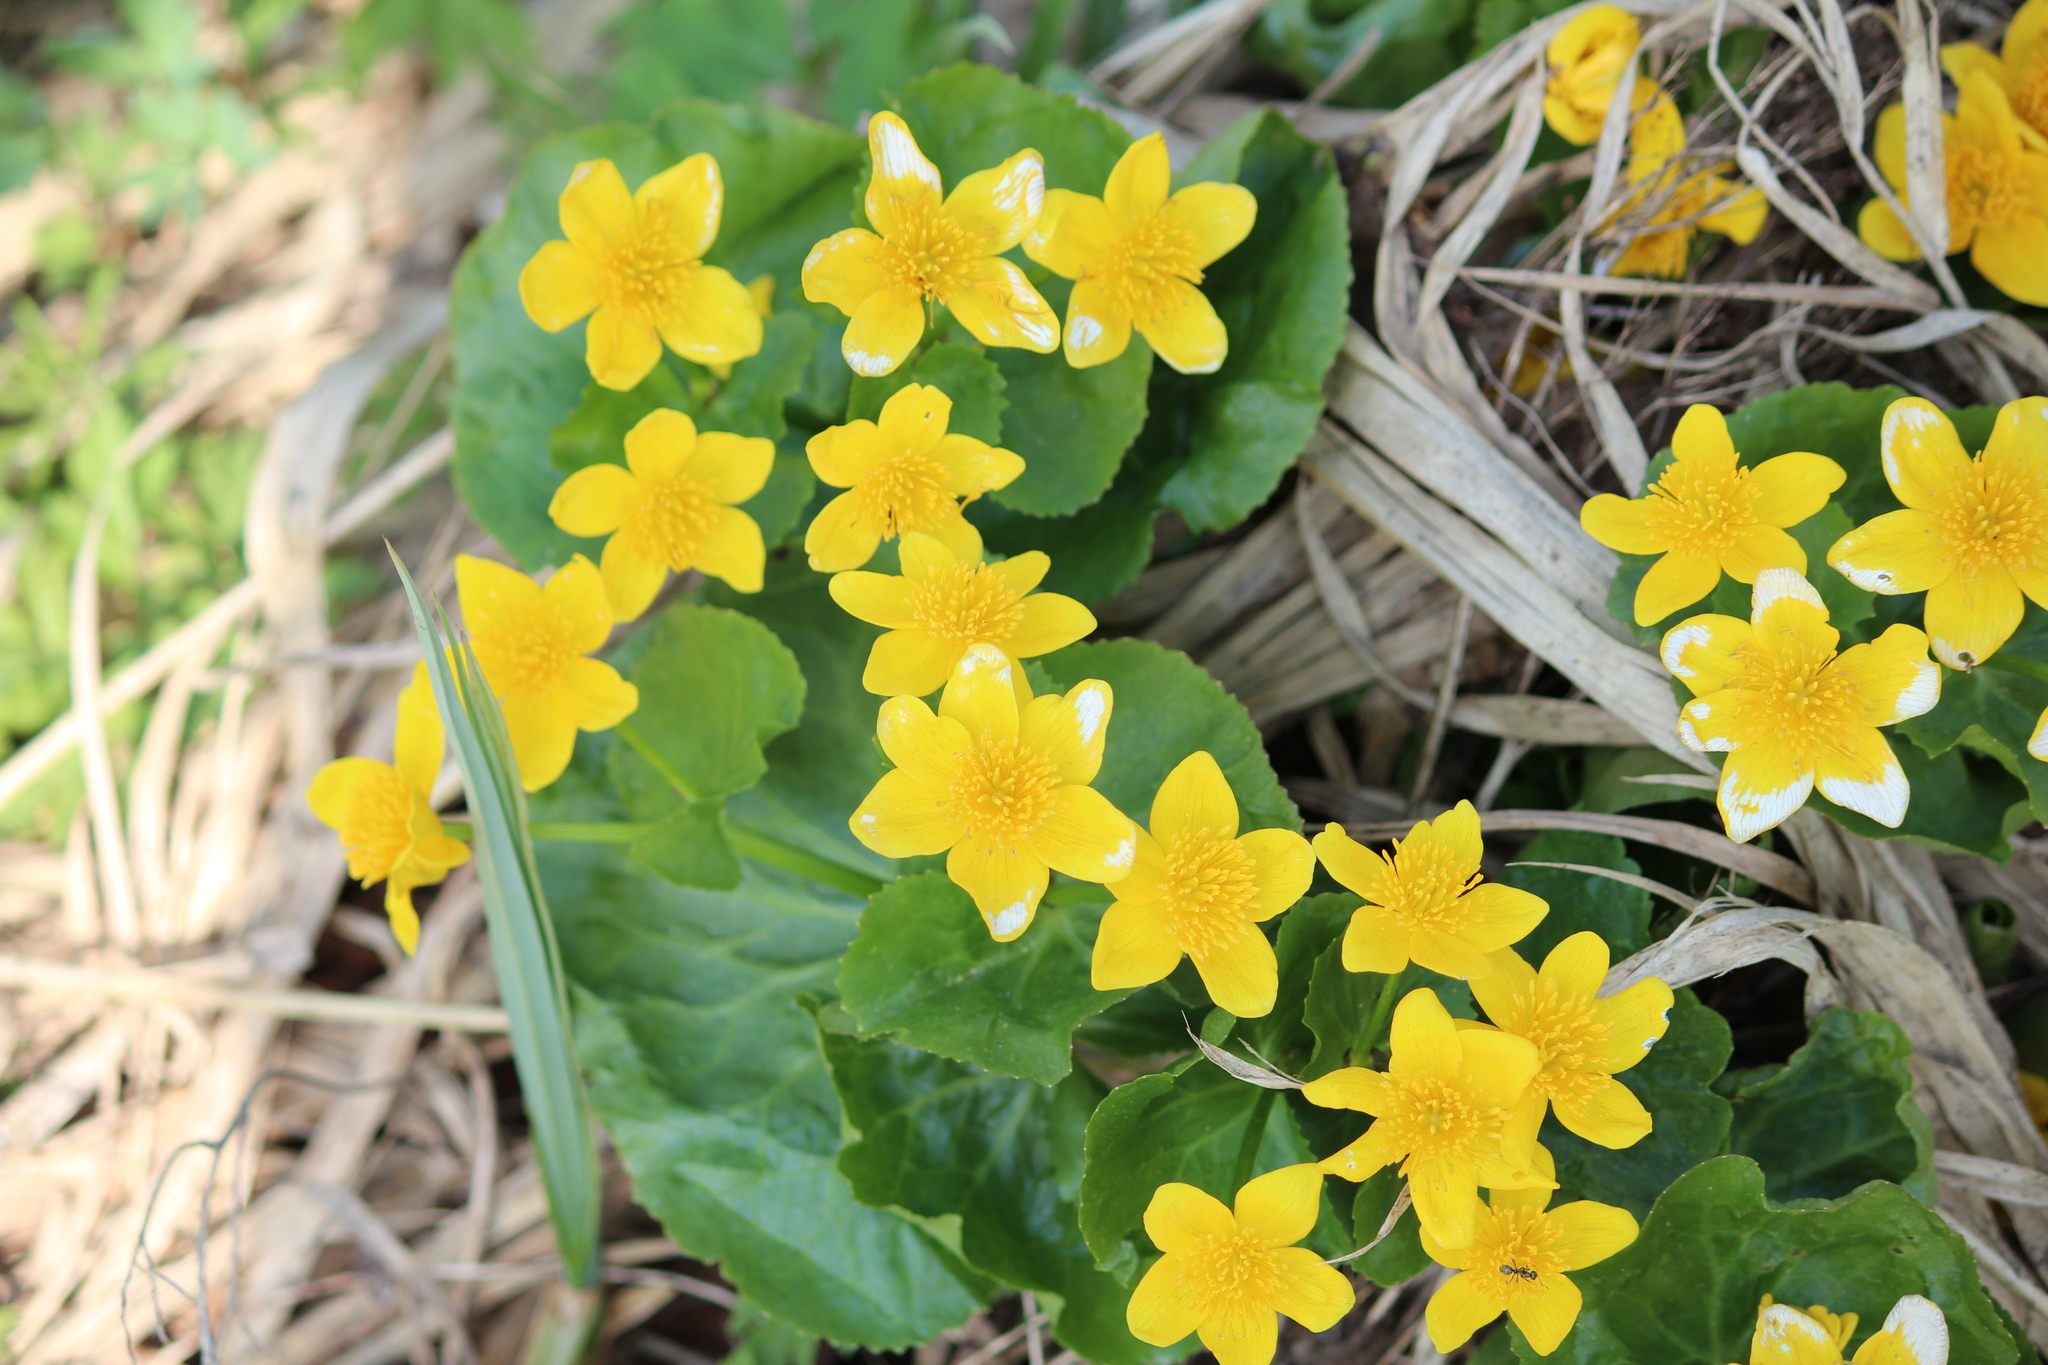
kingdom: Plantae
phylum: Tracheophyta
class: Magnoliopsida
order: Ranunculales
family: Ranunculaceae
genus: Caltha
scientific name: Caltha palustris
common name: Marsh marigold
